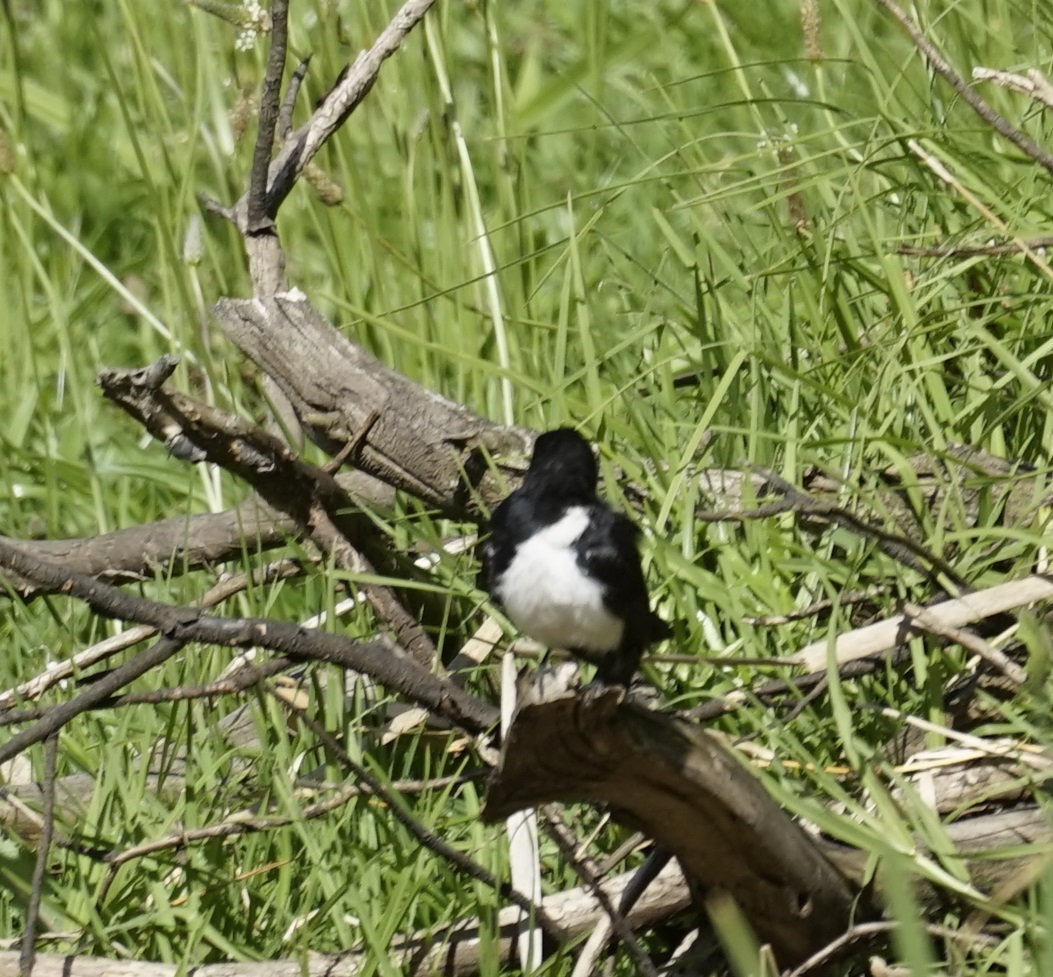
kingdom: Animalia
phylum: Chordata
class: Aves
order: Passeriformes
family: Rhipiduridae
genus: Rhipidura
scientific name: Rhipidura leucophrys
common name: Willie wagtail
